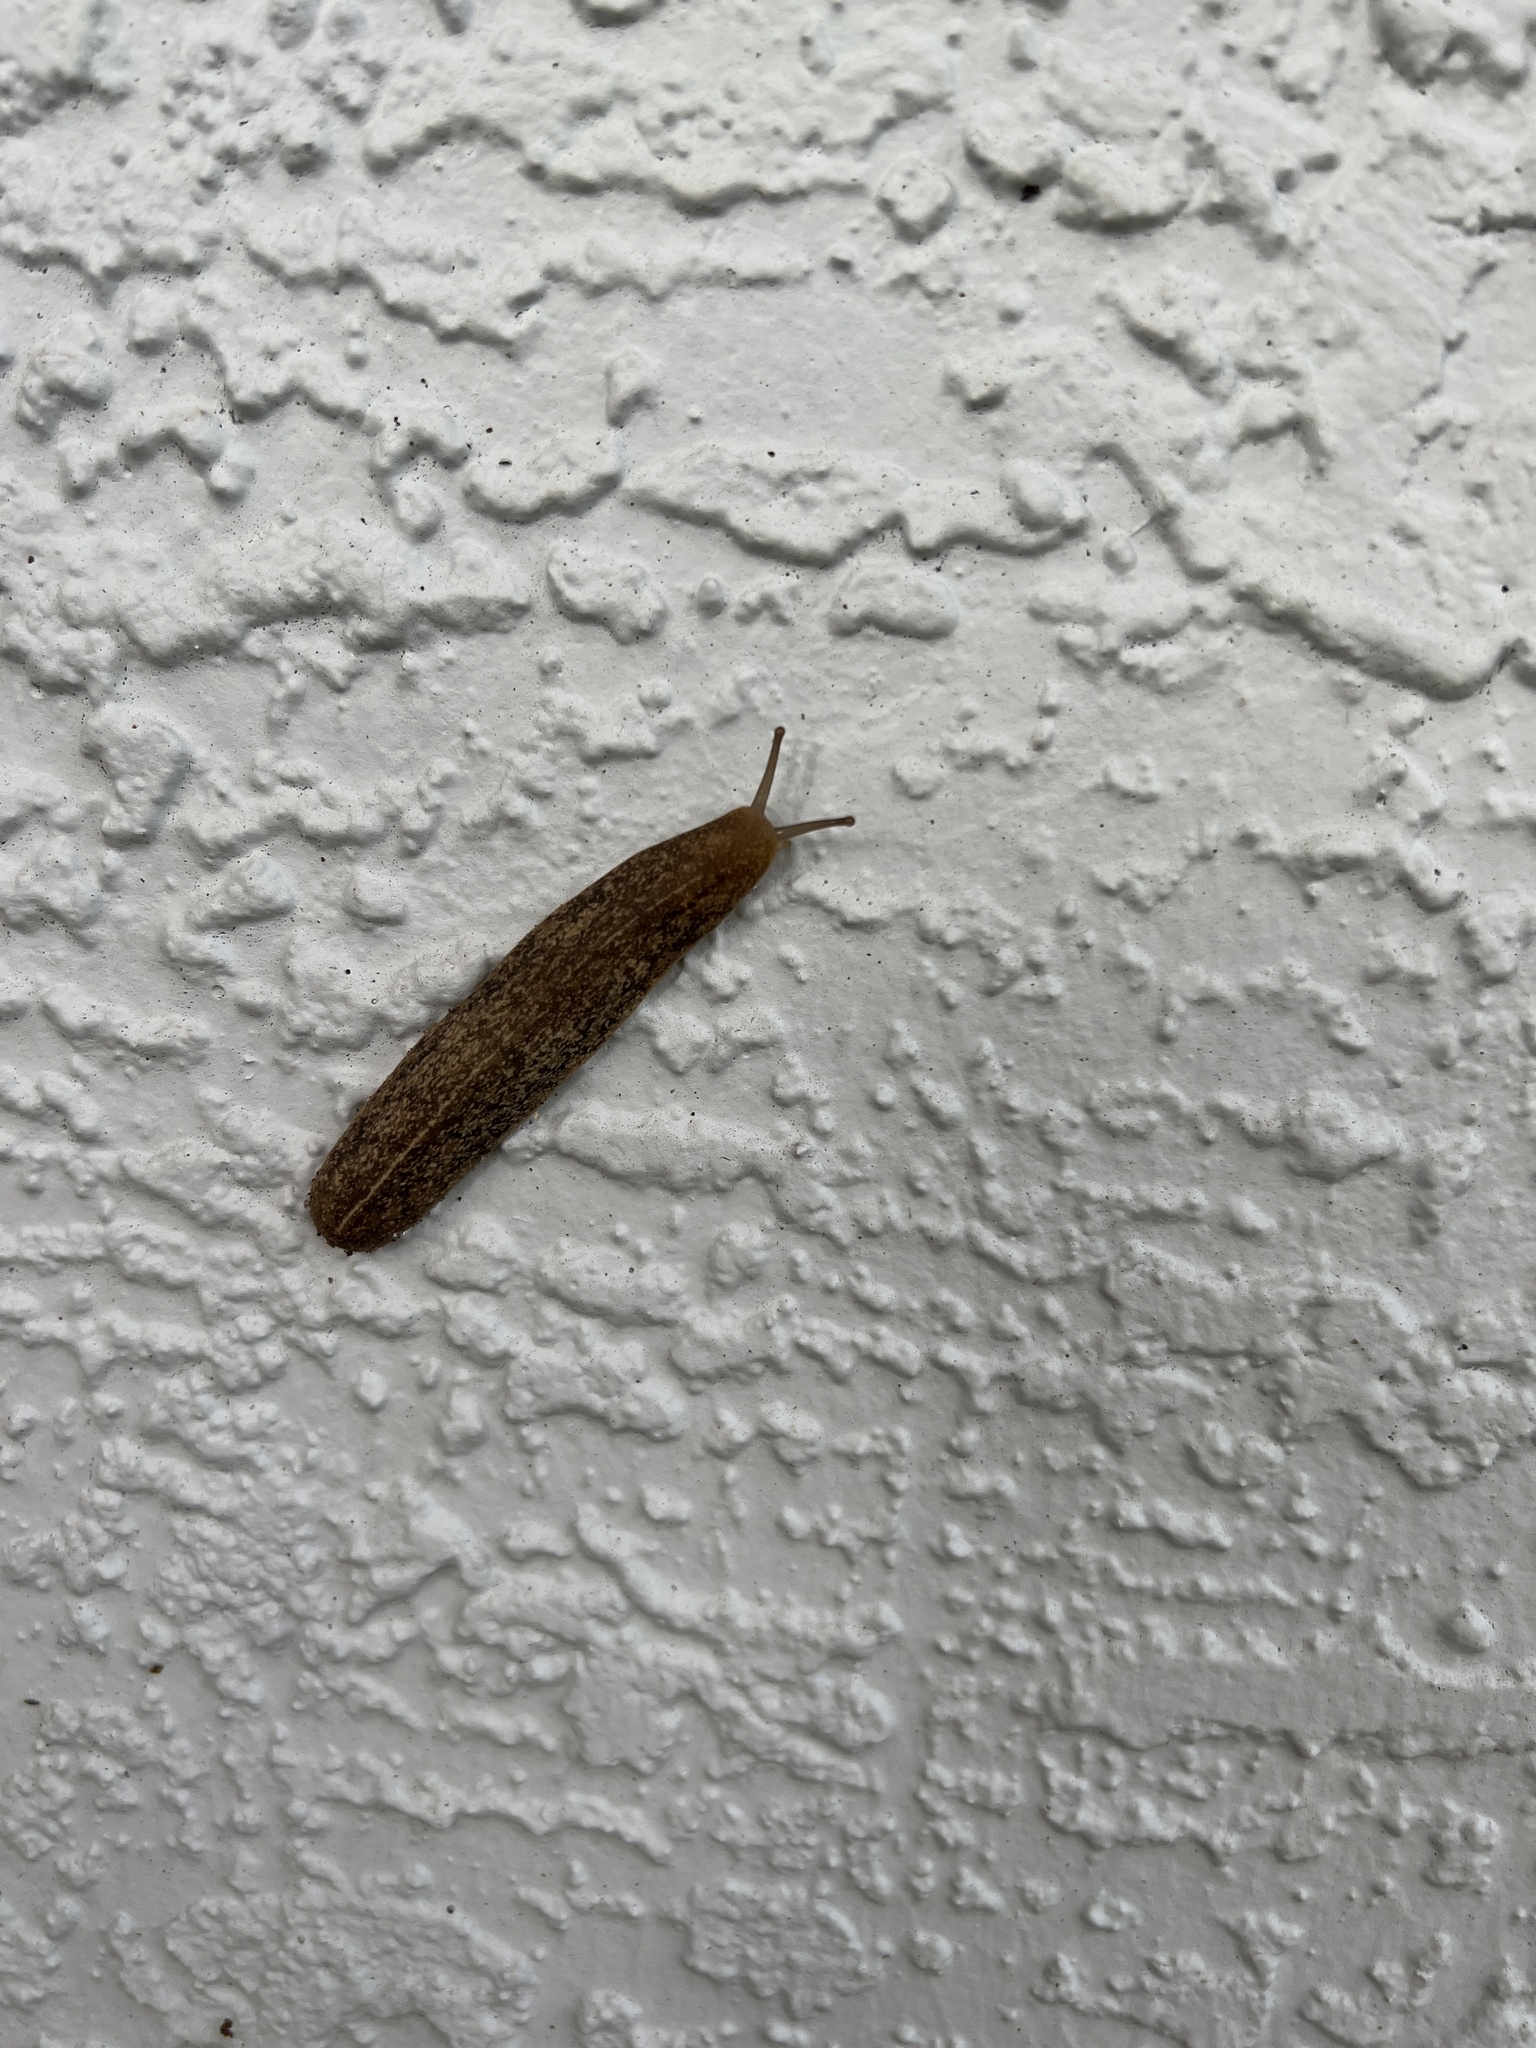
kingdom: Animalia
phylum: Mollusca
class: Gastropoda
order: Systellommatophora
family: Veronicellidae
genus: Leidyula
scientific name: Leidyula floridana
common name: Florida leatherleaf
